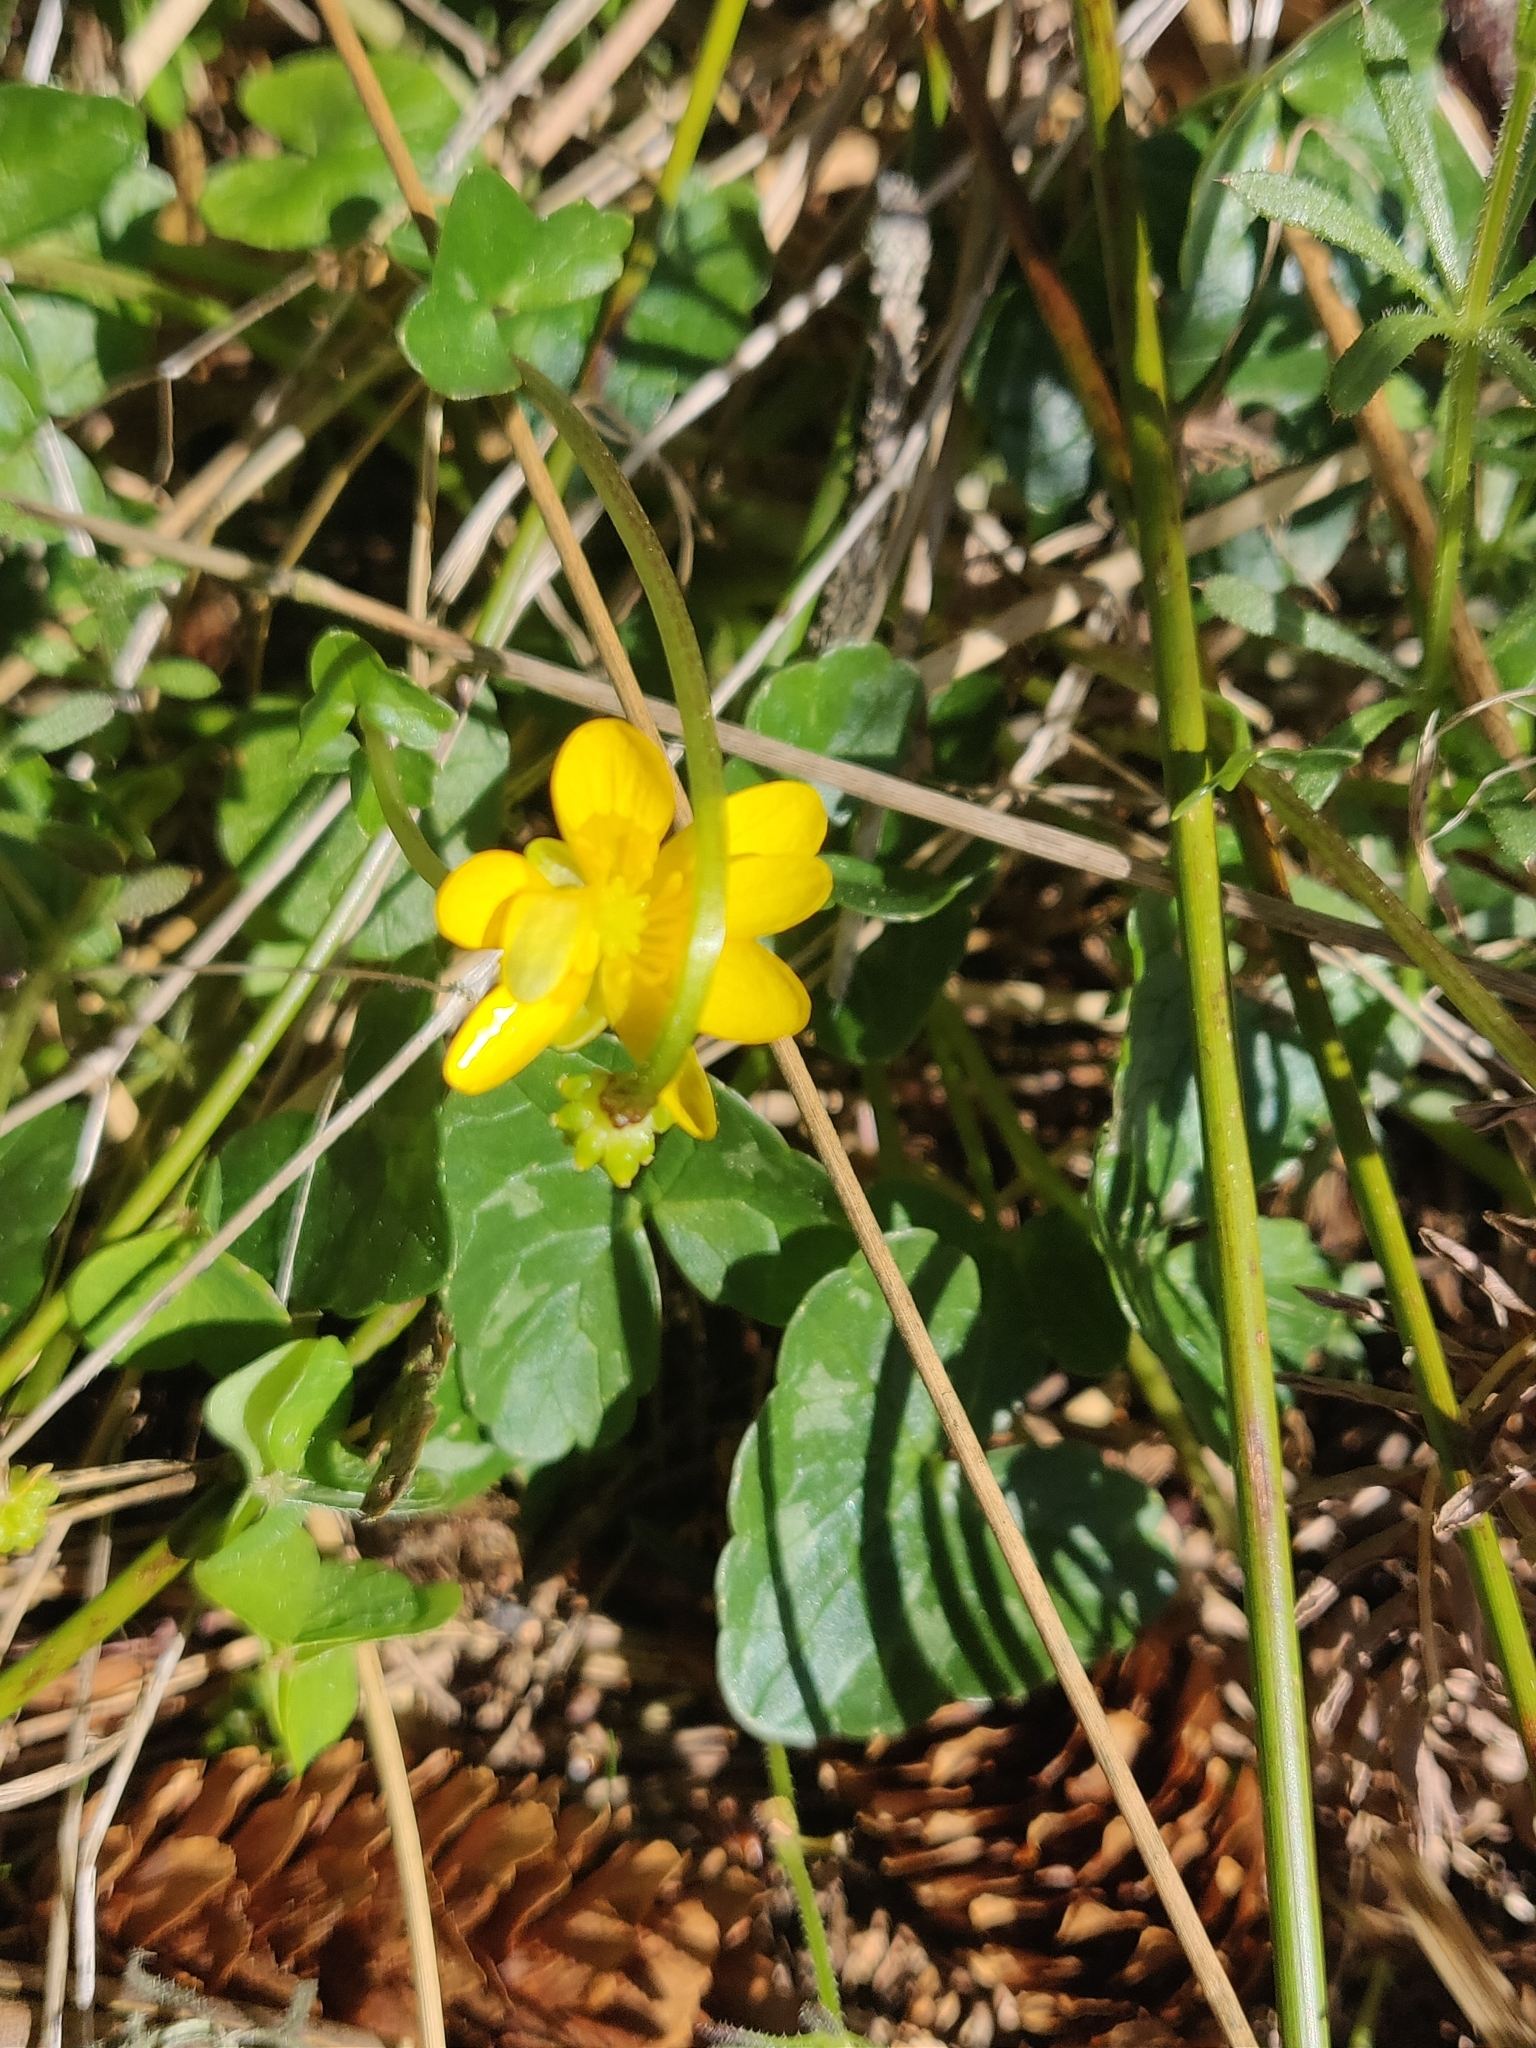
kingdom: Plantae
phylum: Tracheophyta
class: Magnoliopsida
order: Ranunculales
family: Ranunculaceae
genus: Ficaria
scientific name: Ficaria verna
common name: Lesser celandine
